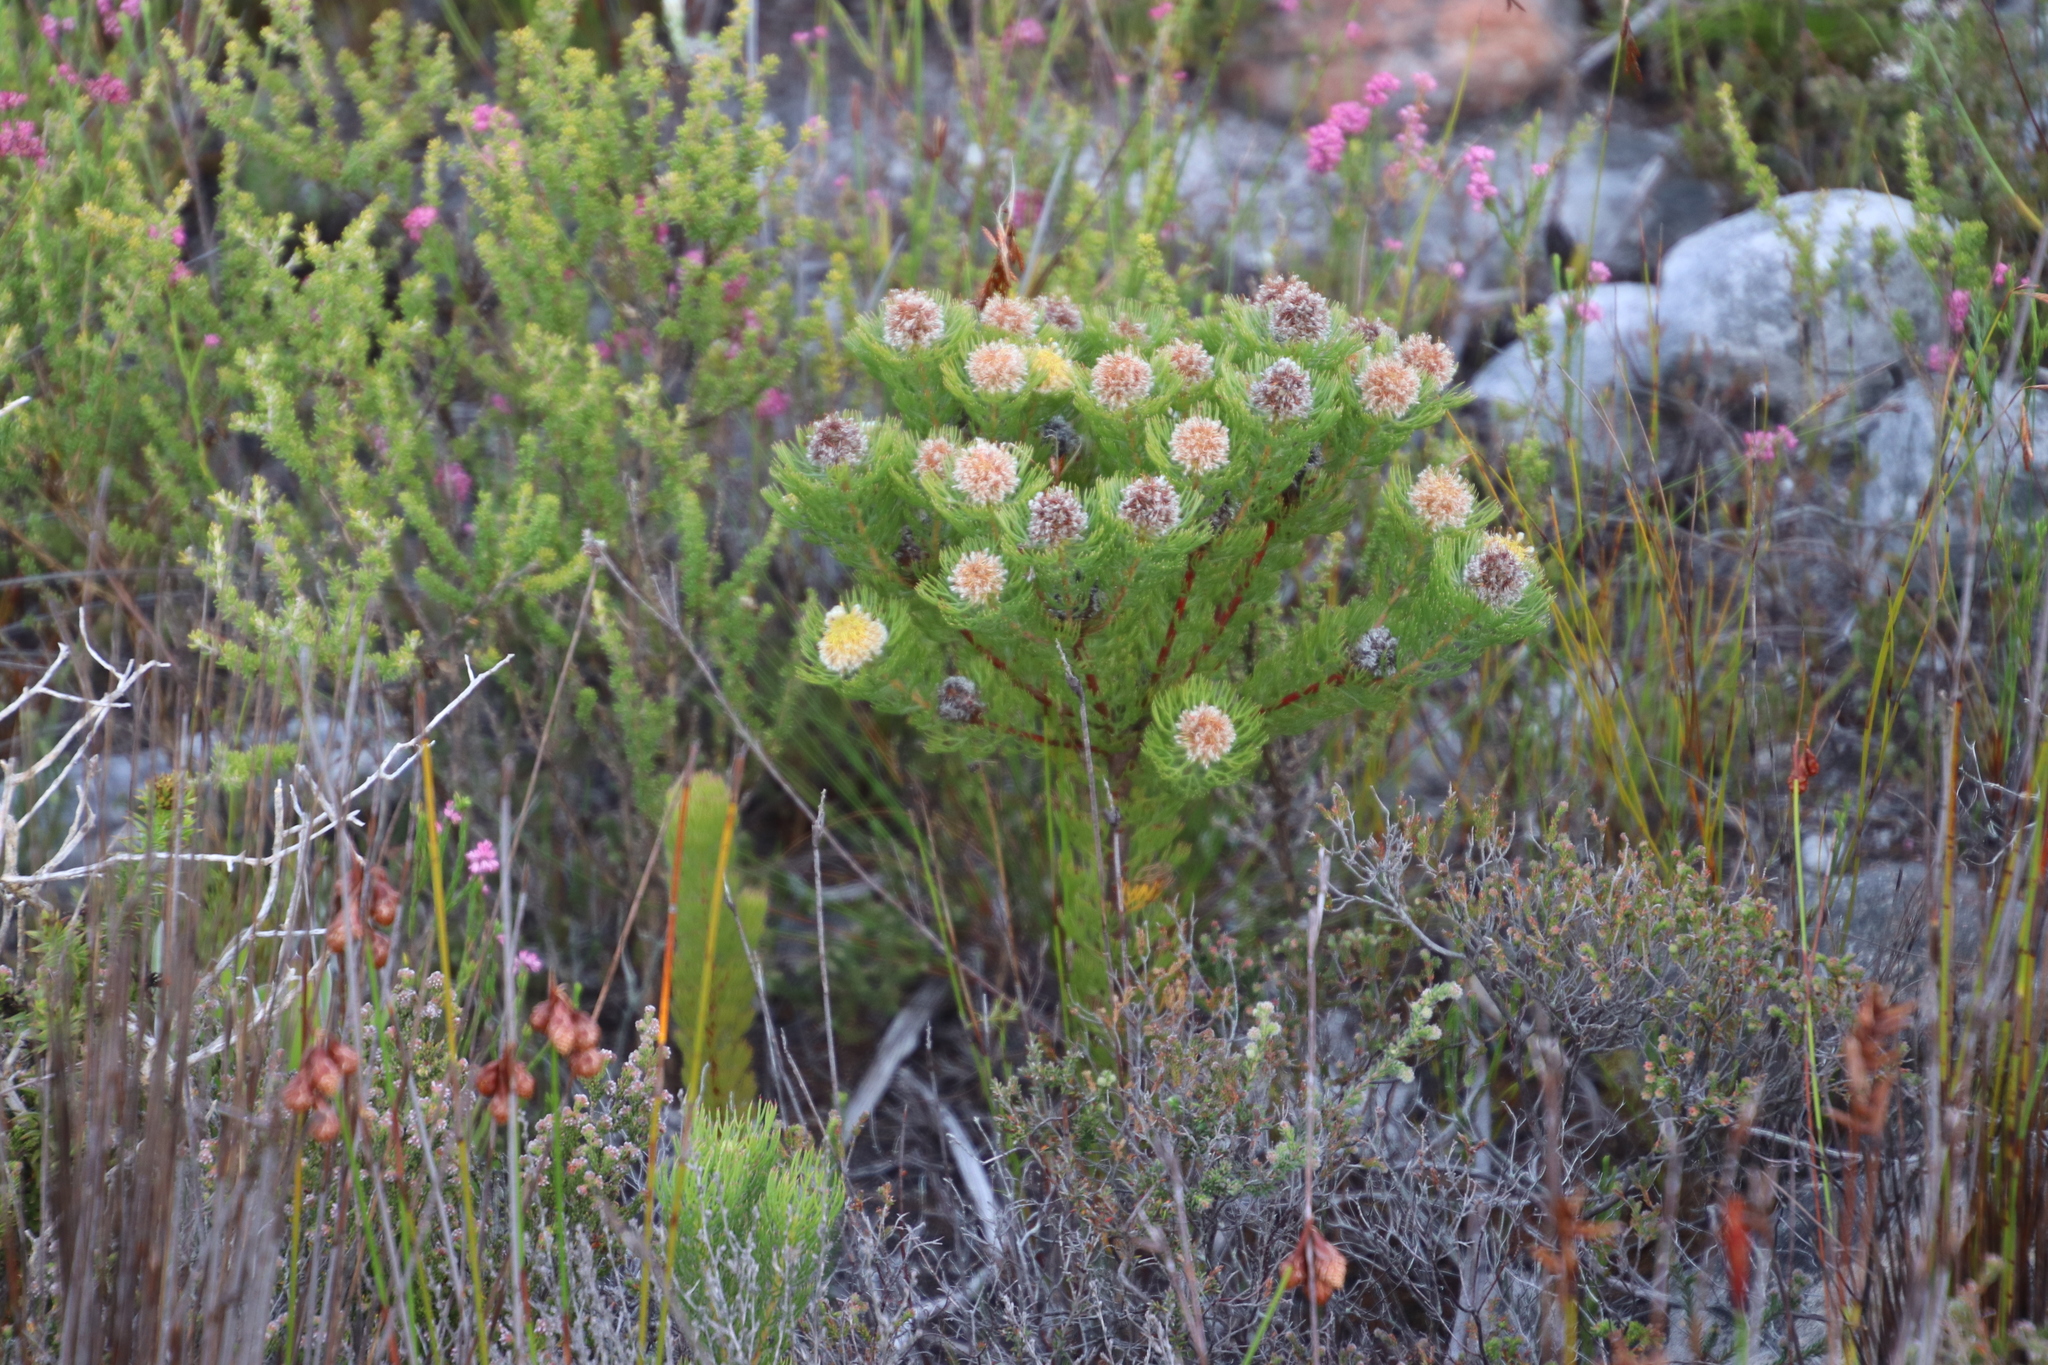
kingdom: Plantae
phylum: Tracheophyta
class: Magnoliopsida
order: Proteales
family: Proteaceae
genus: Serruria
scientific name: Serruria villosa
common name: Golden spiderhead
